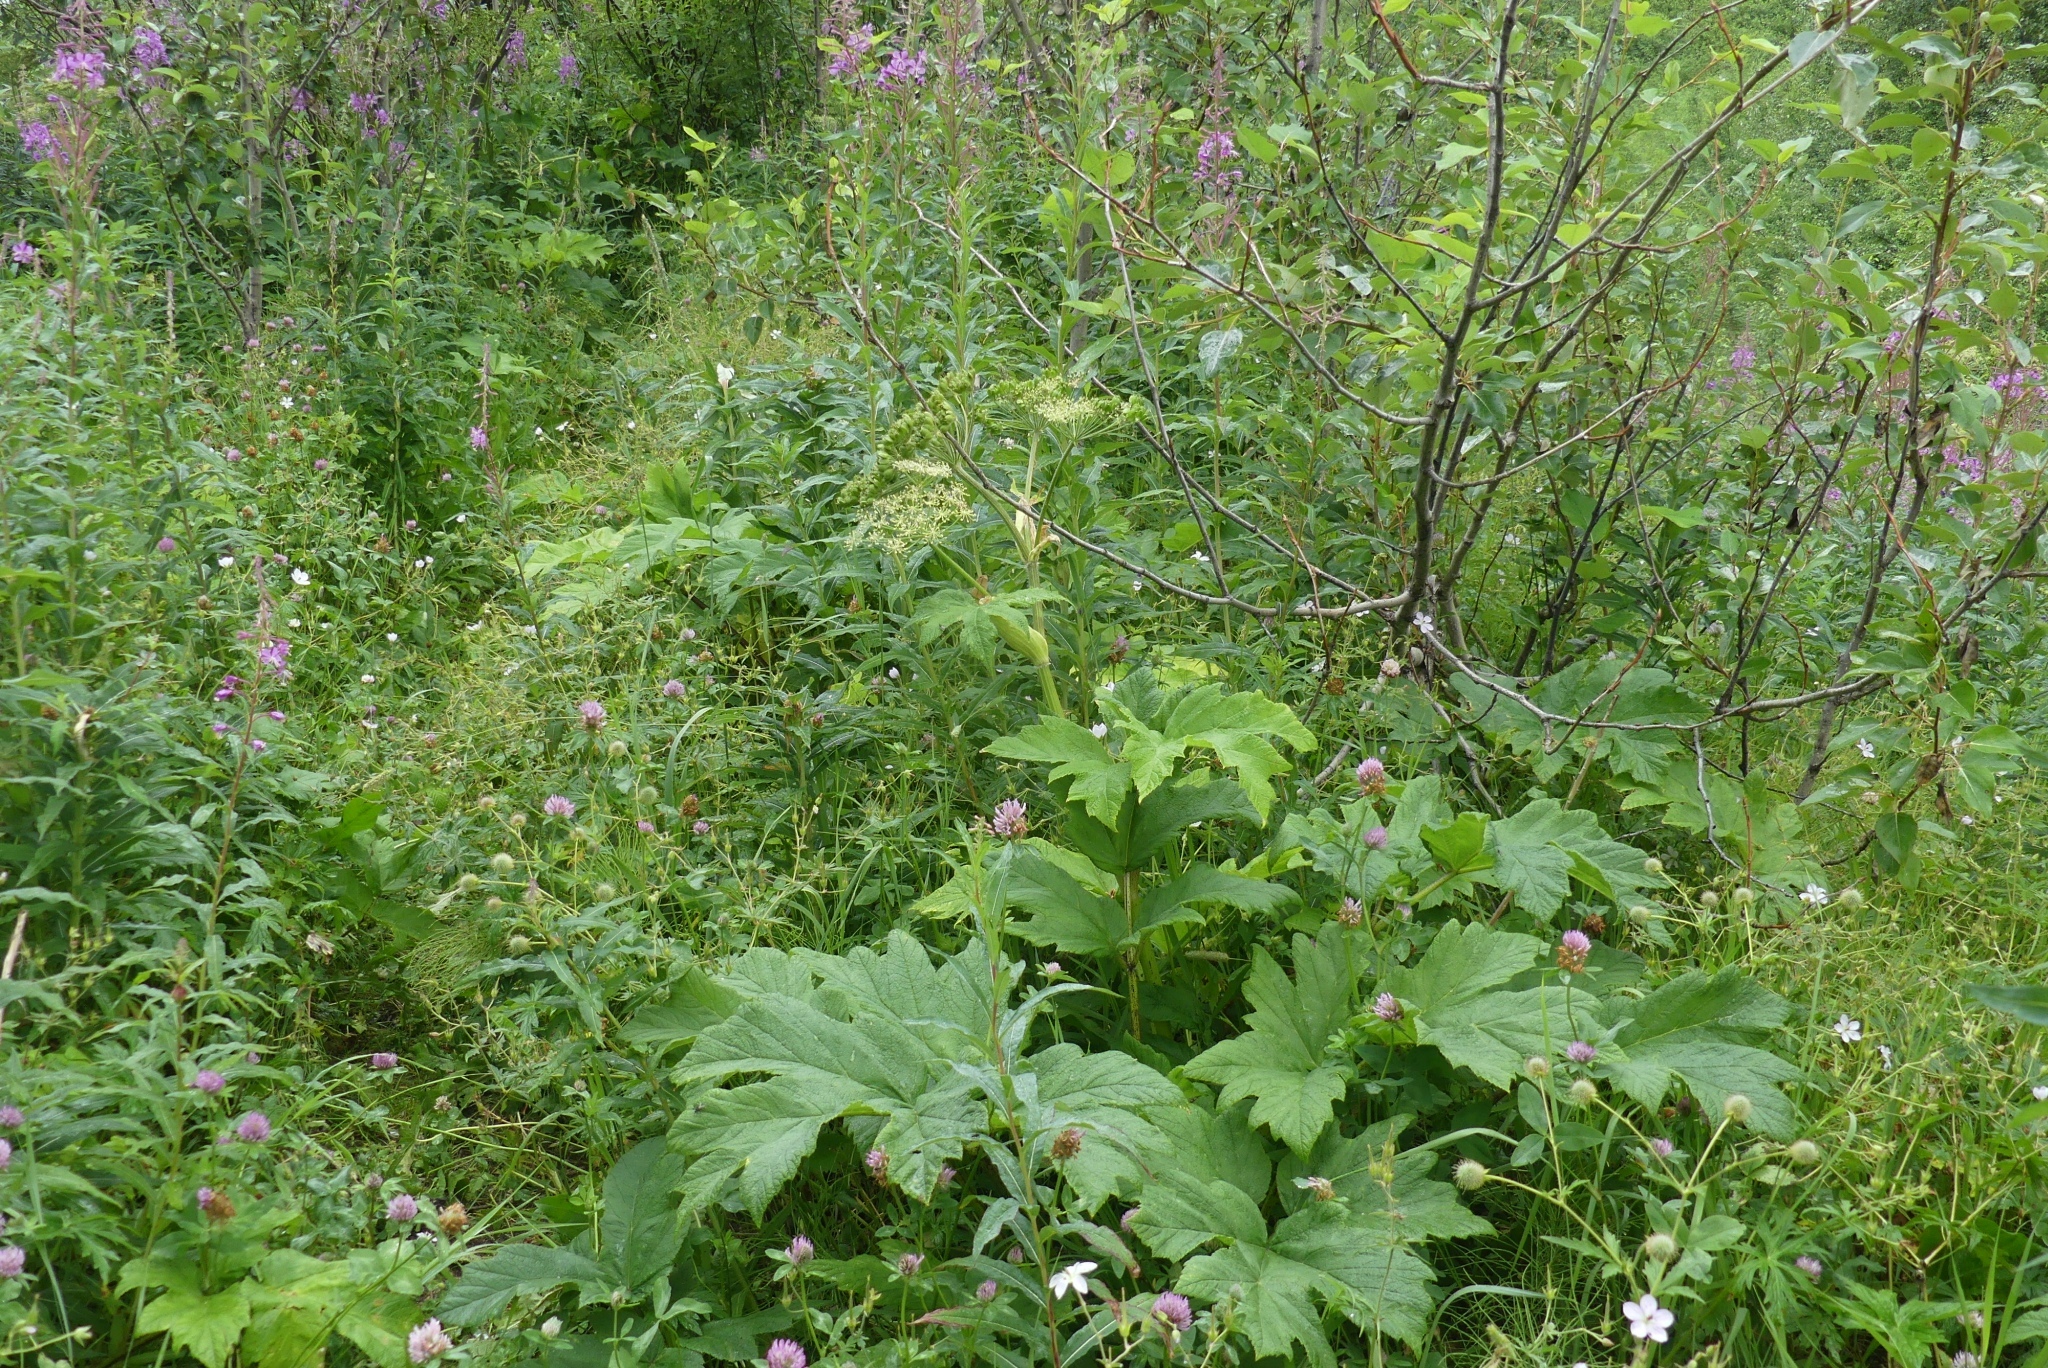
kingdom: Plantae
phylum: Tracheophyta
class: Magnoliopsida
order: Apiales
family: Apiaceae
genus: Heracleum
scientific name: Heracleum maximum
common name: American cow parsnip
